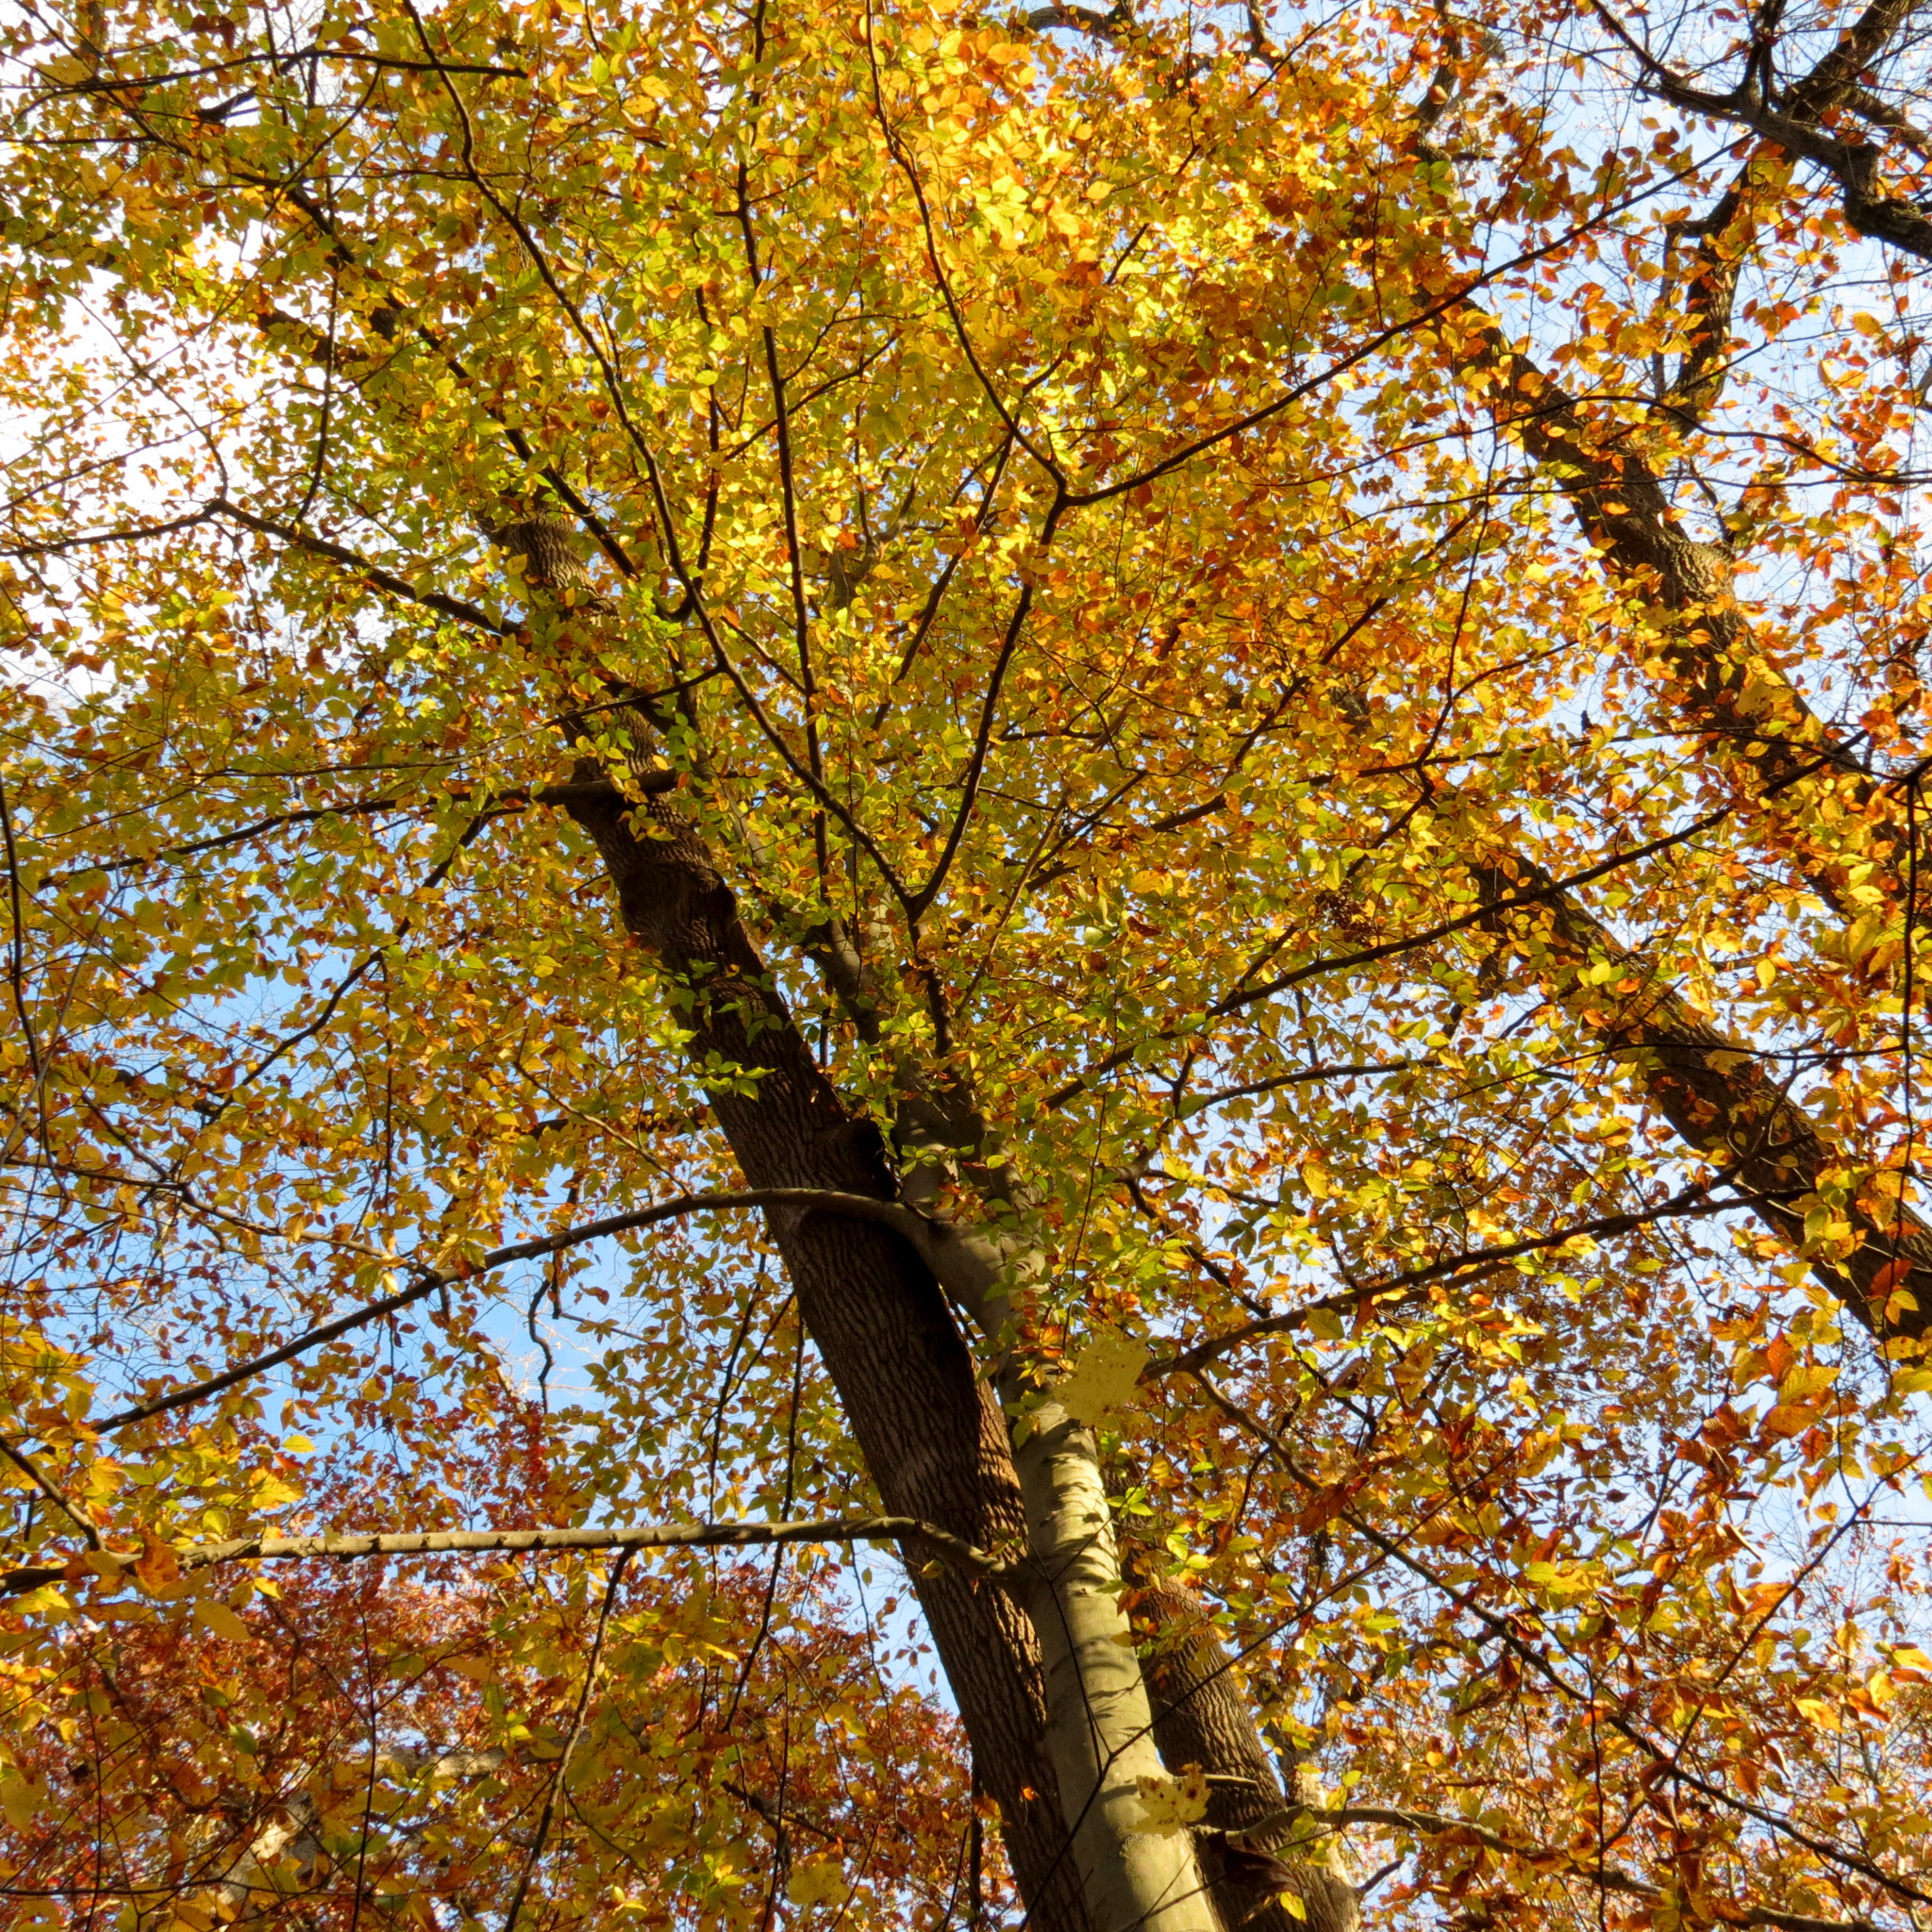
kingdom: Plantae
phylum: Tracheophyta
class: Magnoliopsida
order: Fagales
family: Fagaceae
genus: Fagus
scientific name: Fagus grandifolia
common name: American beech
